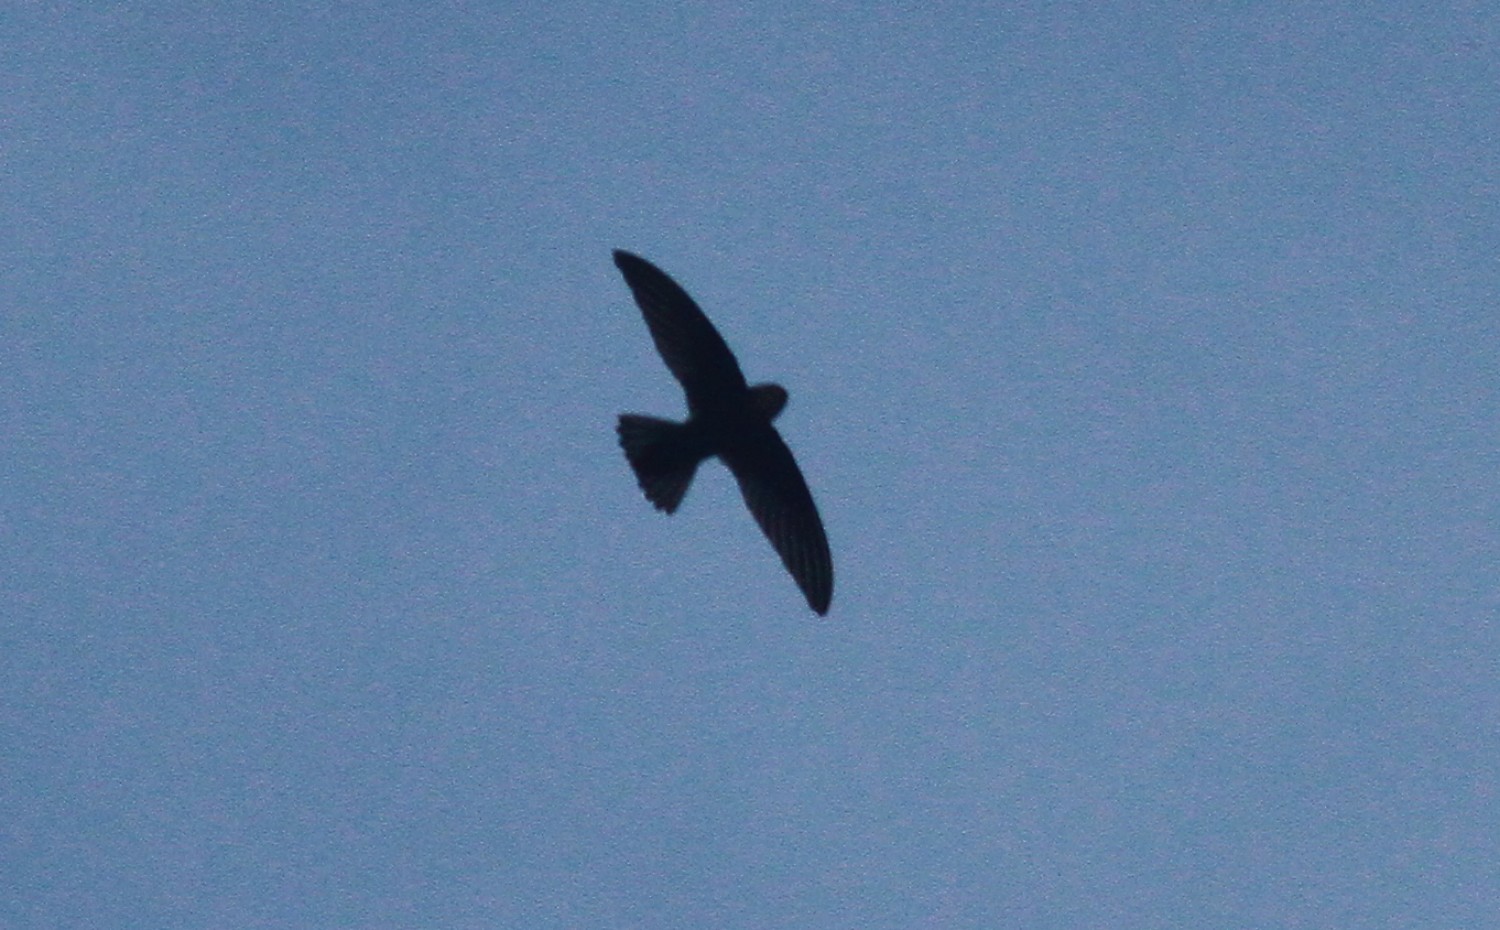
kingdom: Animalia
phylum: Chordata
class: Aves
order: Apodiformes
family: Apodidae
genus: Apus
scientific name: Apus affinis
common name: Little swift
